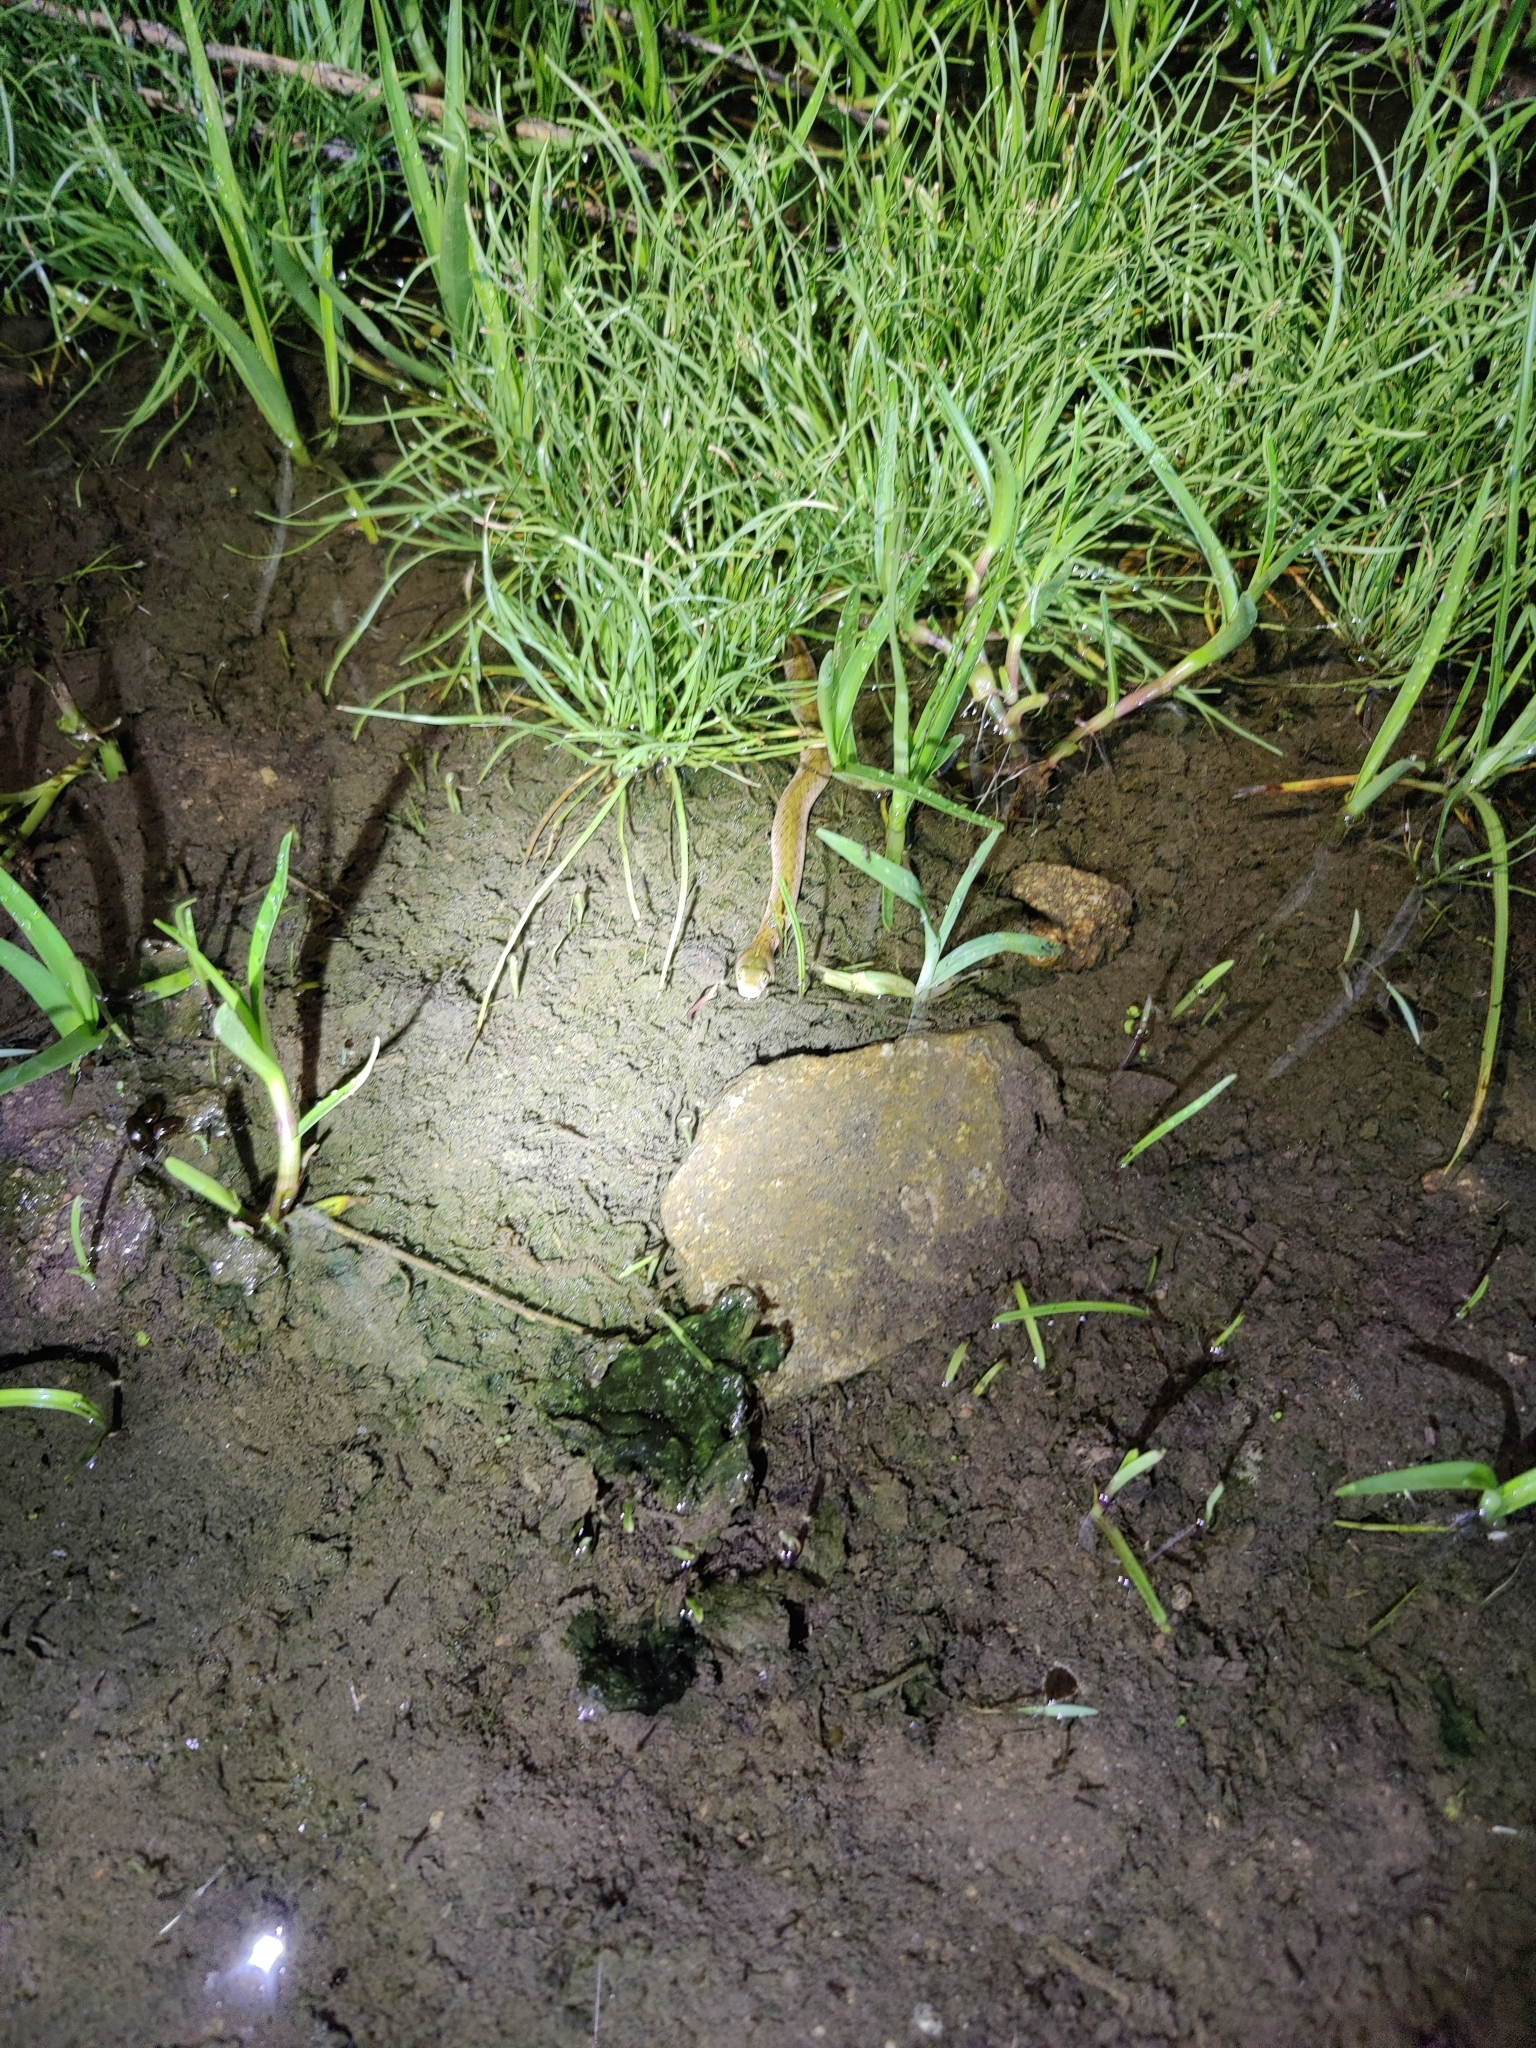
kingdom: Animalia
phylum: Chordata
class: Squamata
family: Colubridae
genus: Fowlea
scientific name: Fowlea piscator
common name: Asiatic water snake
